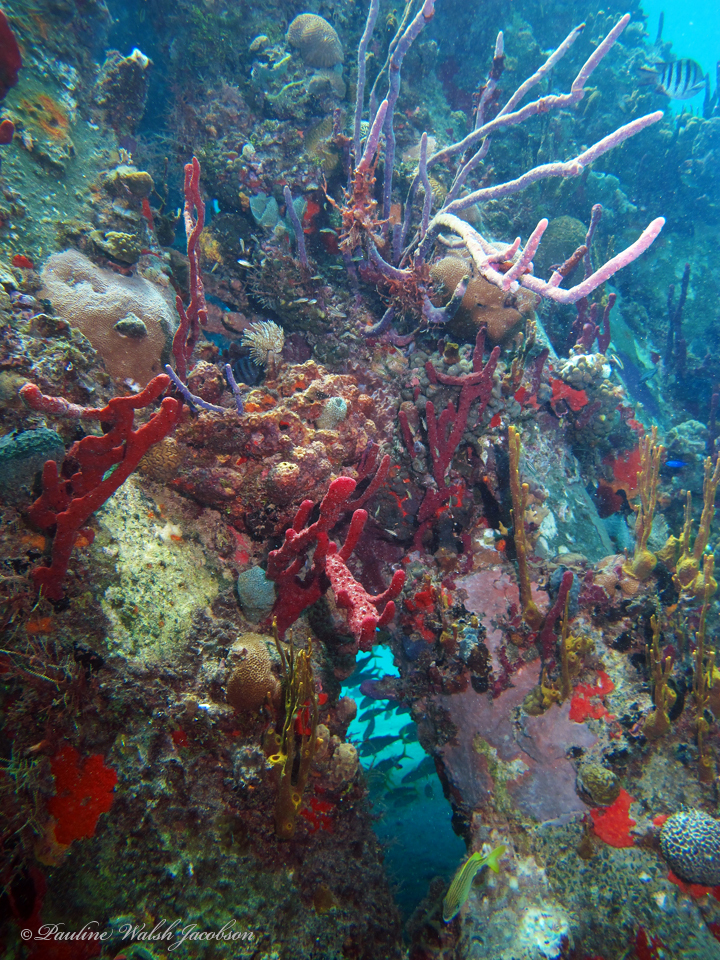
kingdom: Animalia
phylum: Porifera
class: Demospongiae
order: Haplosclerida
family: Niphatidae
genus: Amphimedon
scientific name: Amphimedon compressa
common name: Red sponge
